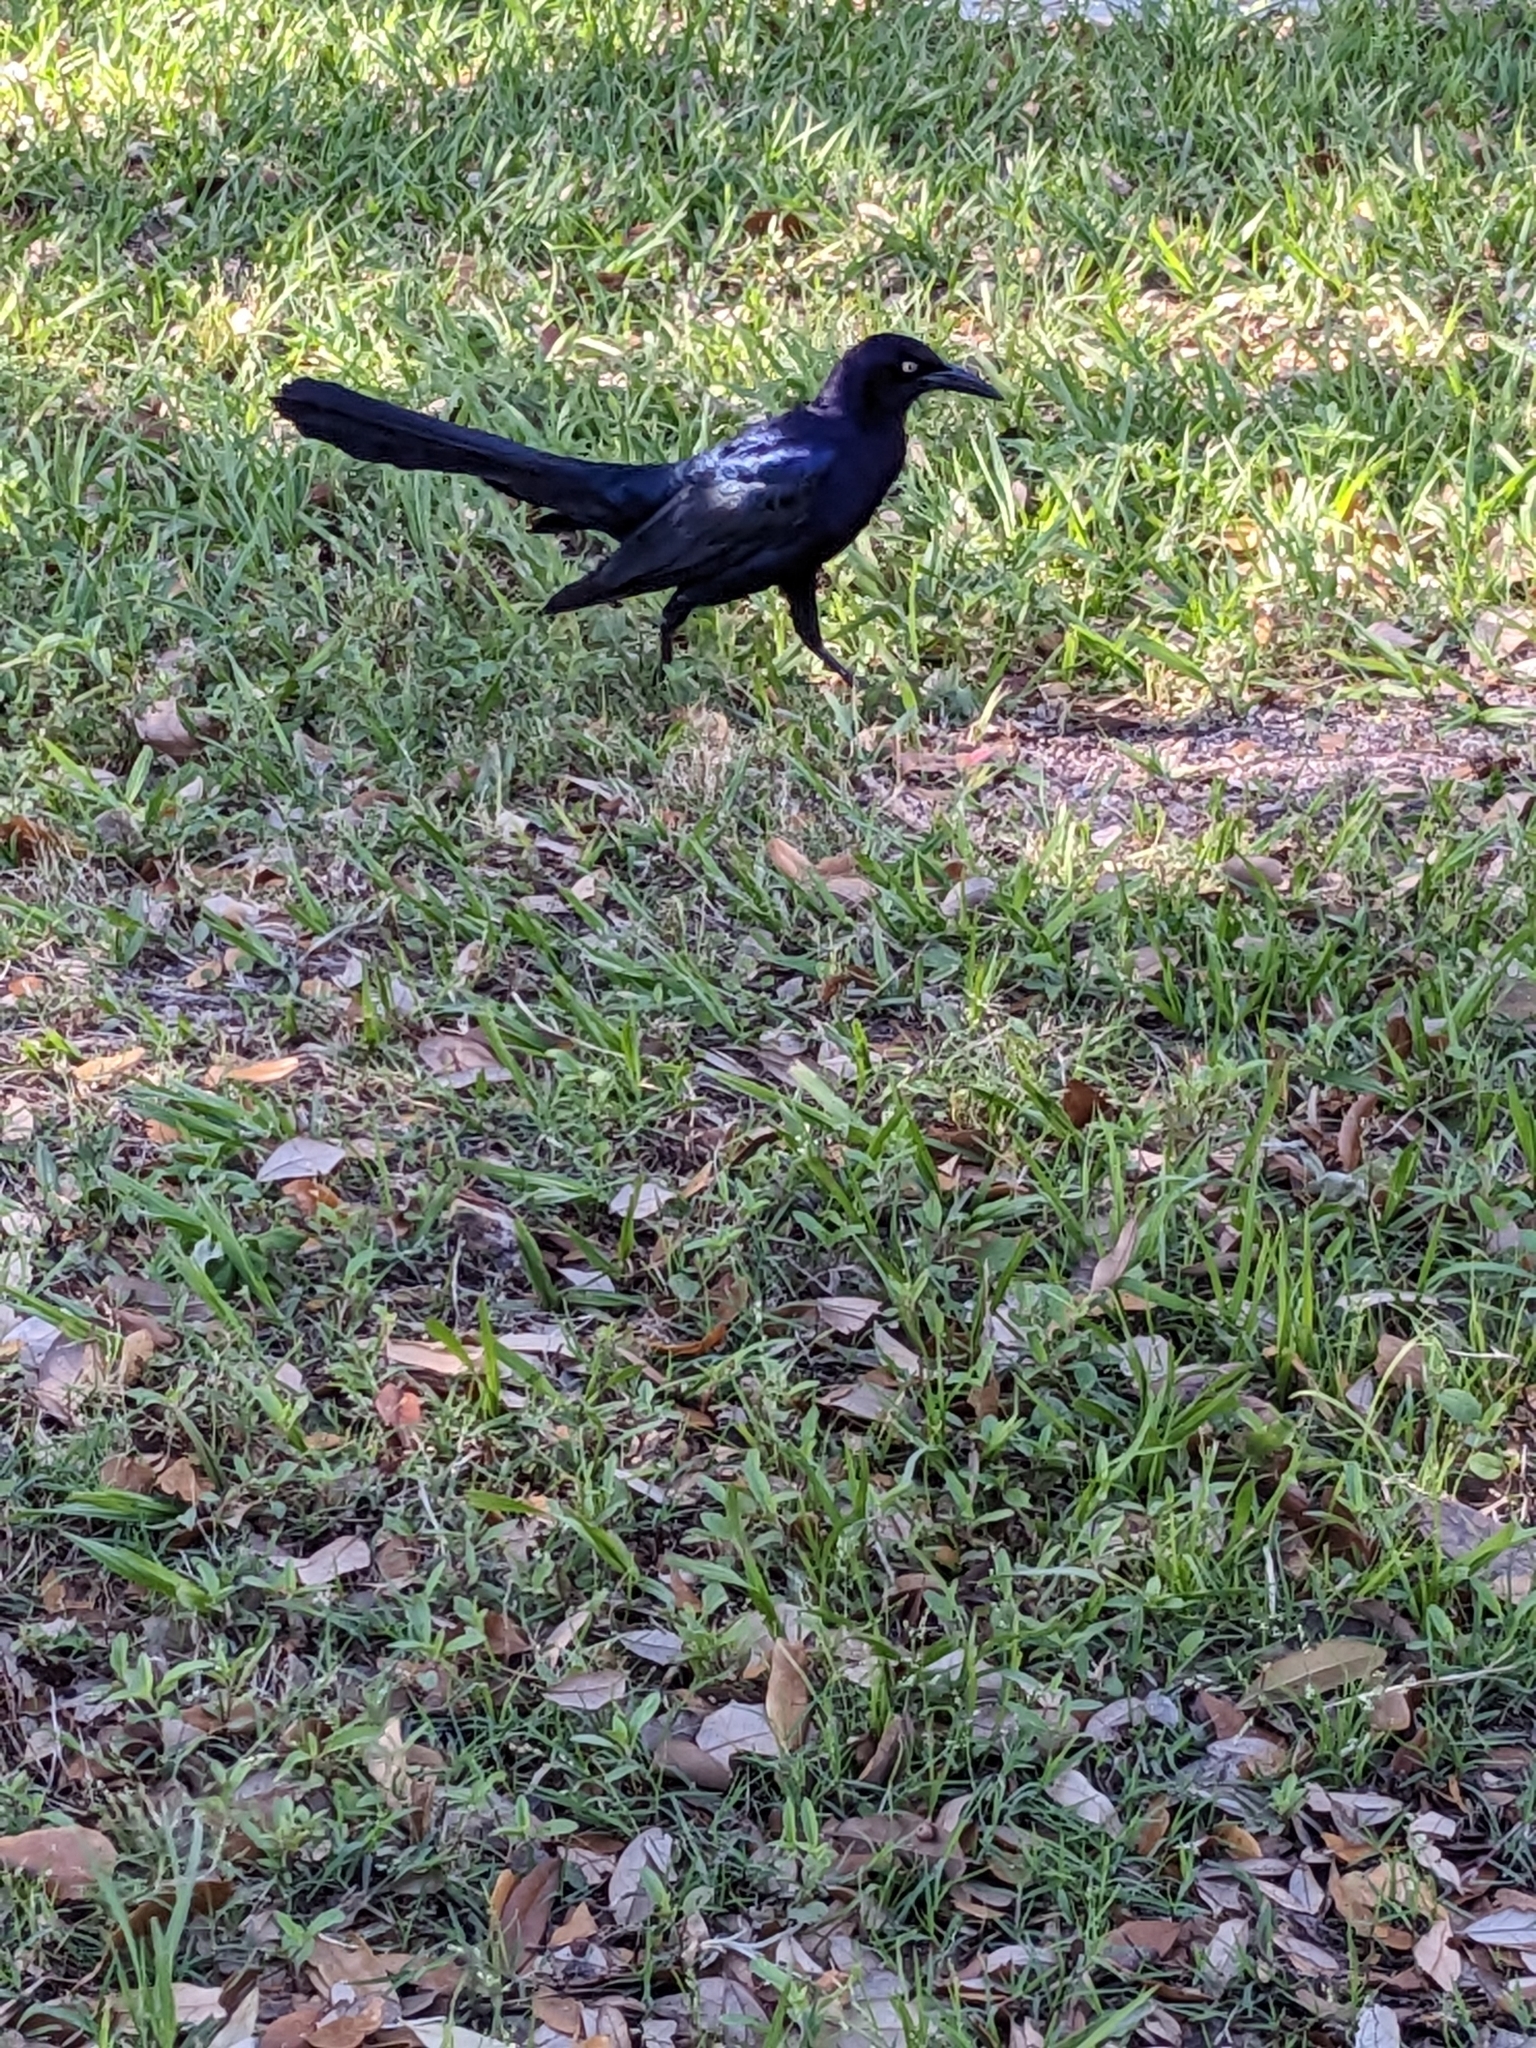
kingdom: Animalia
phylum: Chordata
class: Aves
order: Passeriformes
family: Icteridae
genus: Quiscalus
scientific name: Quiscalus mexicanus
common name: Great-tailed grackle
